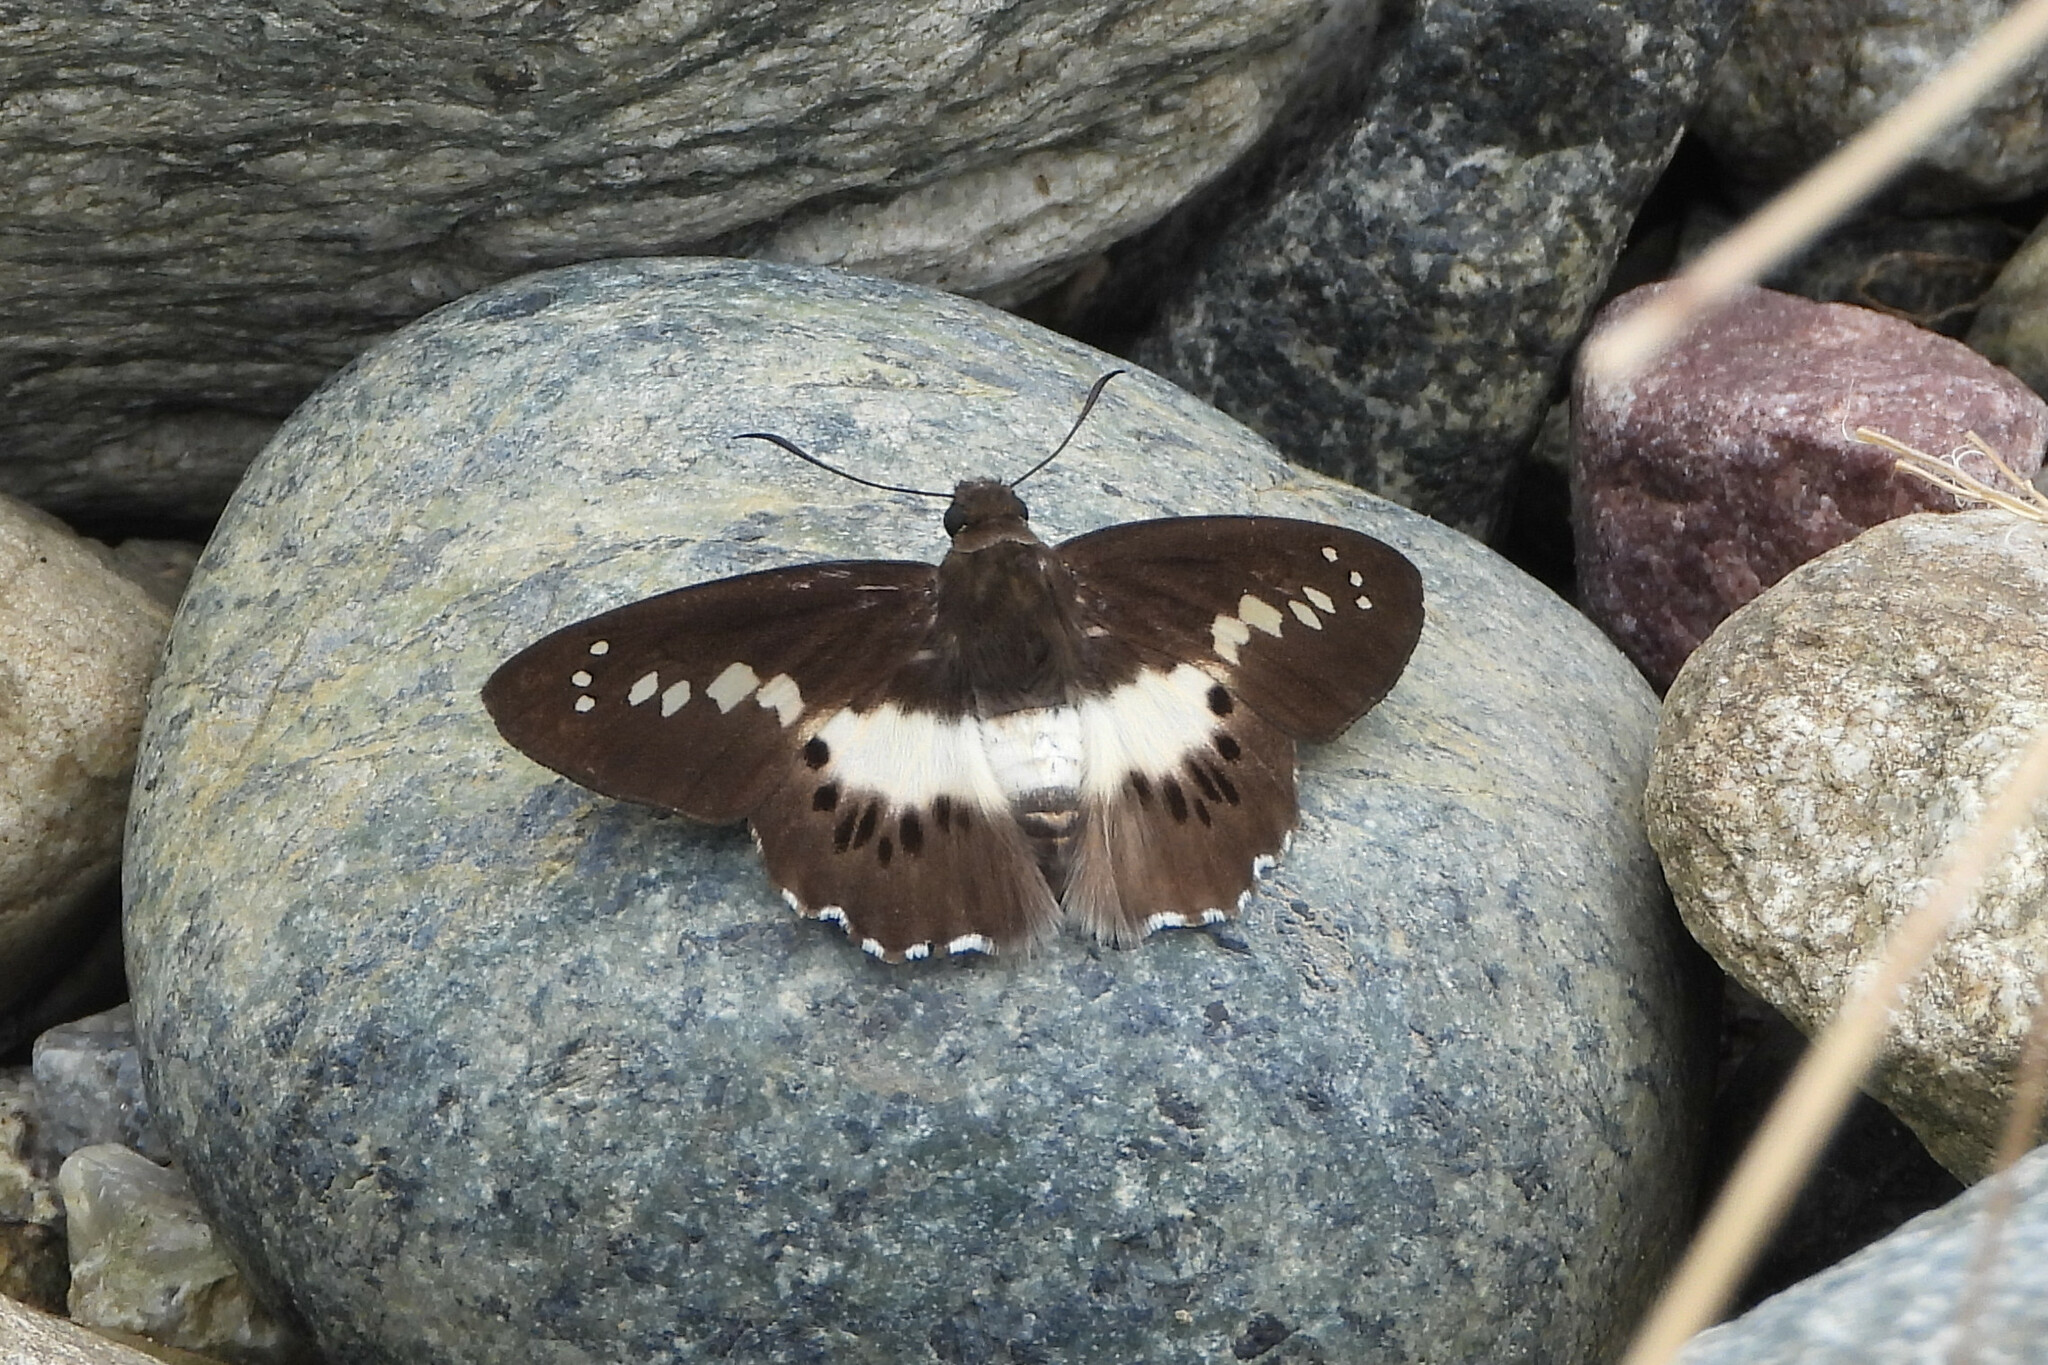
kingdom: Animalia
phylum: Arthropoda
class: Insecta
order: Lepidoptera
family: Hesperiidae
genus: Seseria
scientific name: Seseria sambara
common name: Notched seseria
